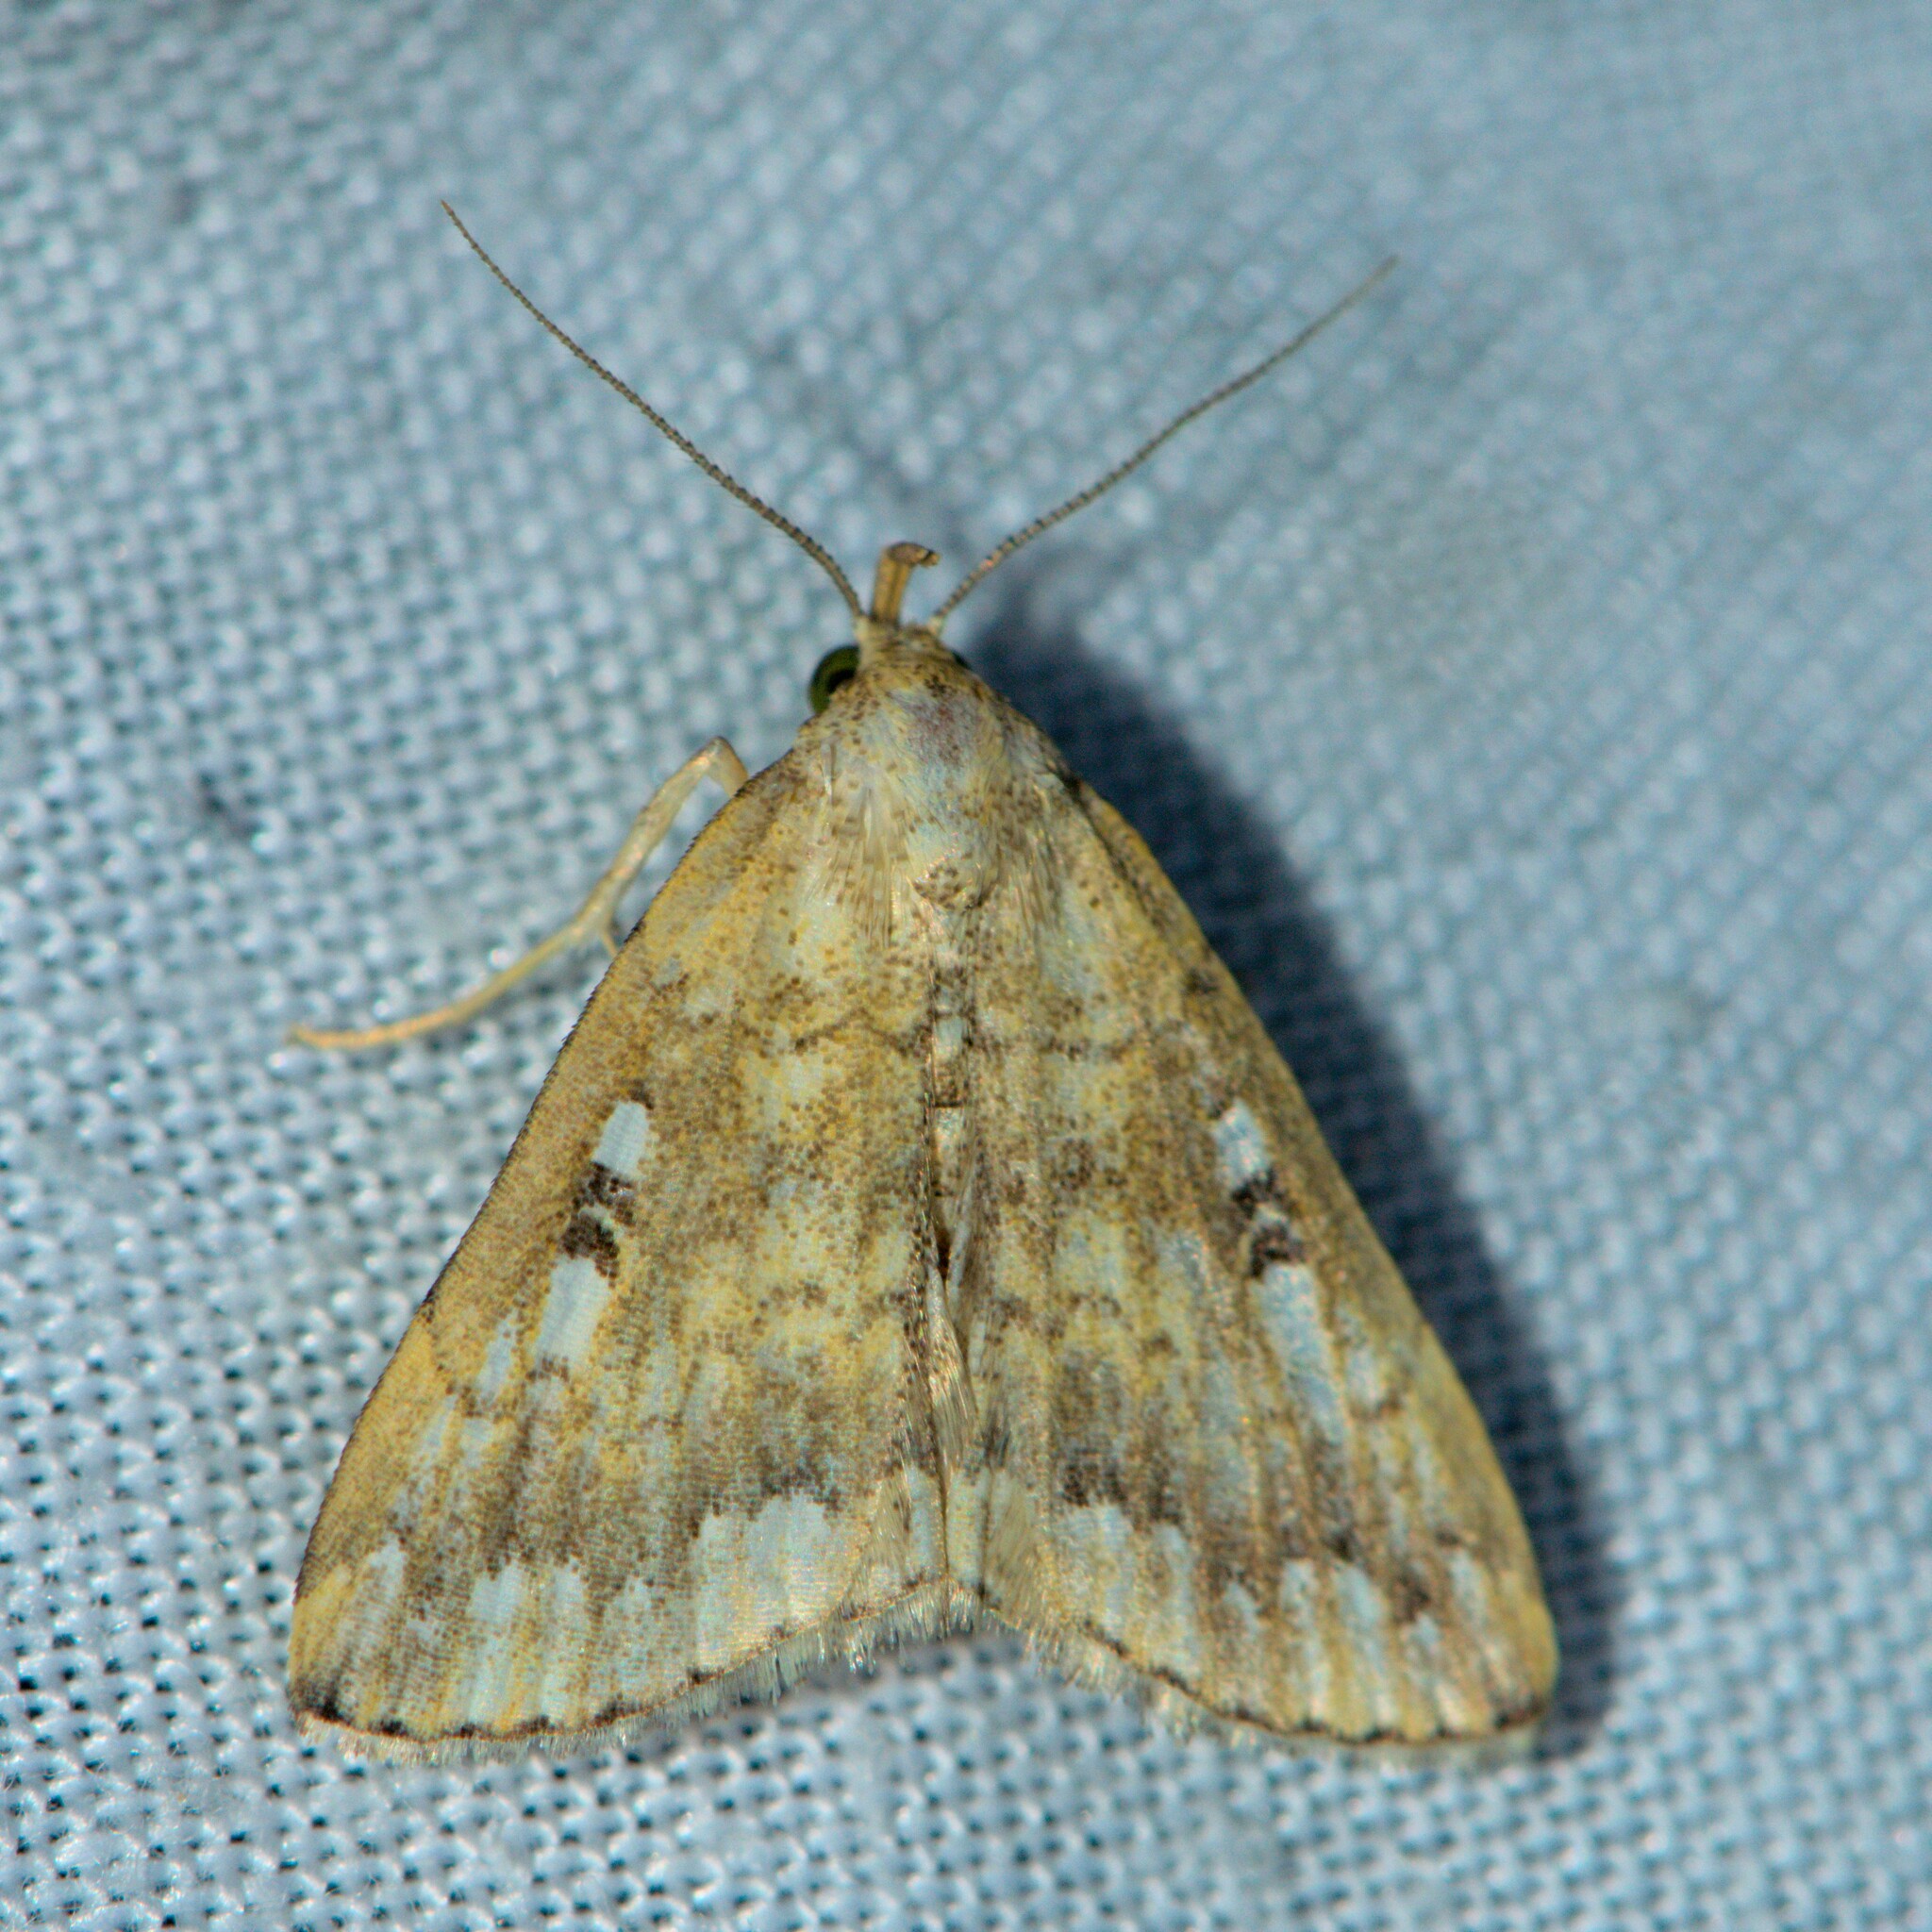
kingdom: Animalia
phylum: Arthropoda
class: Insecta
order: Lepidoptera
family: Erebidae
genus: Herminia
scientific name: Herminia
